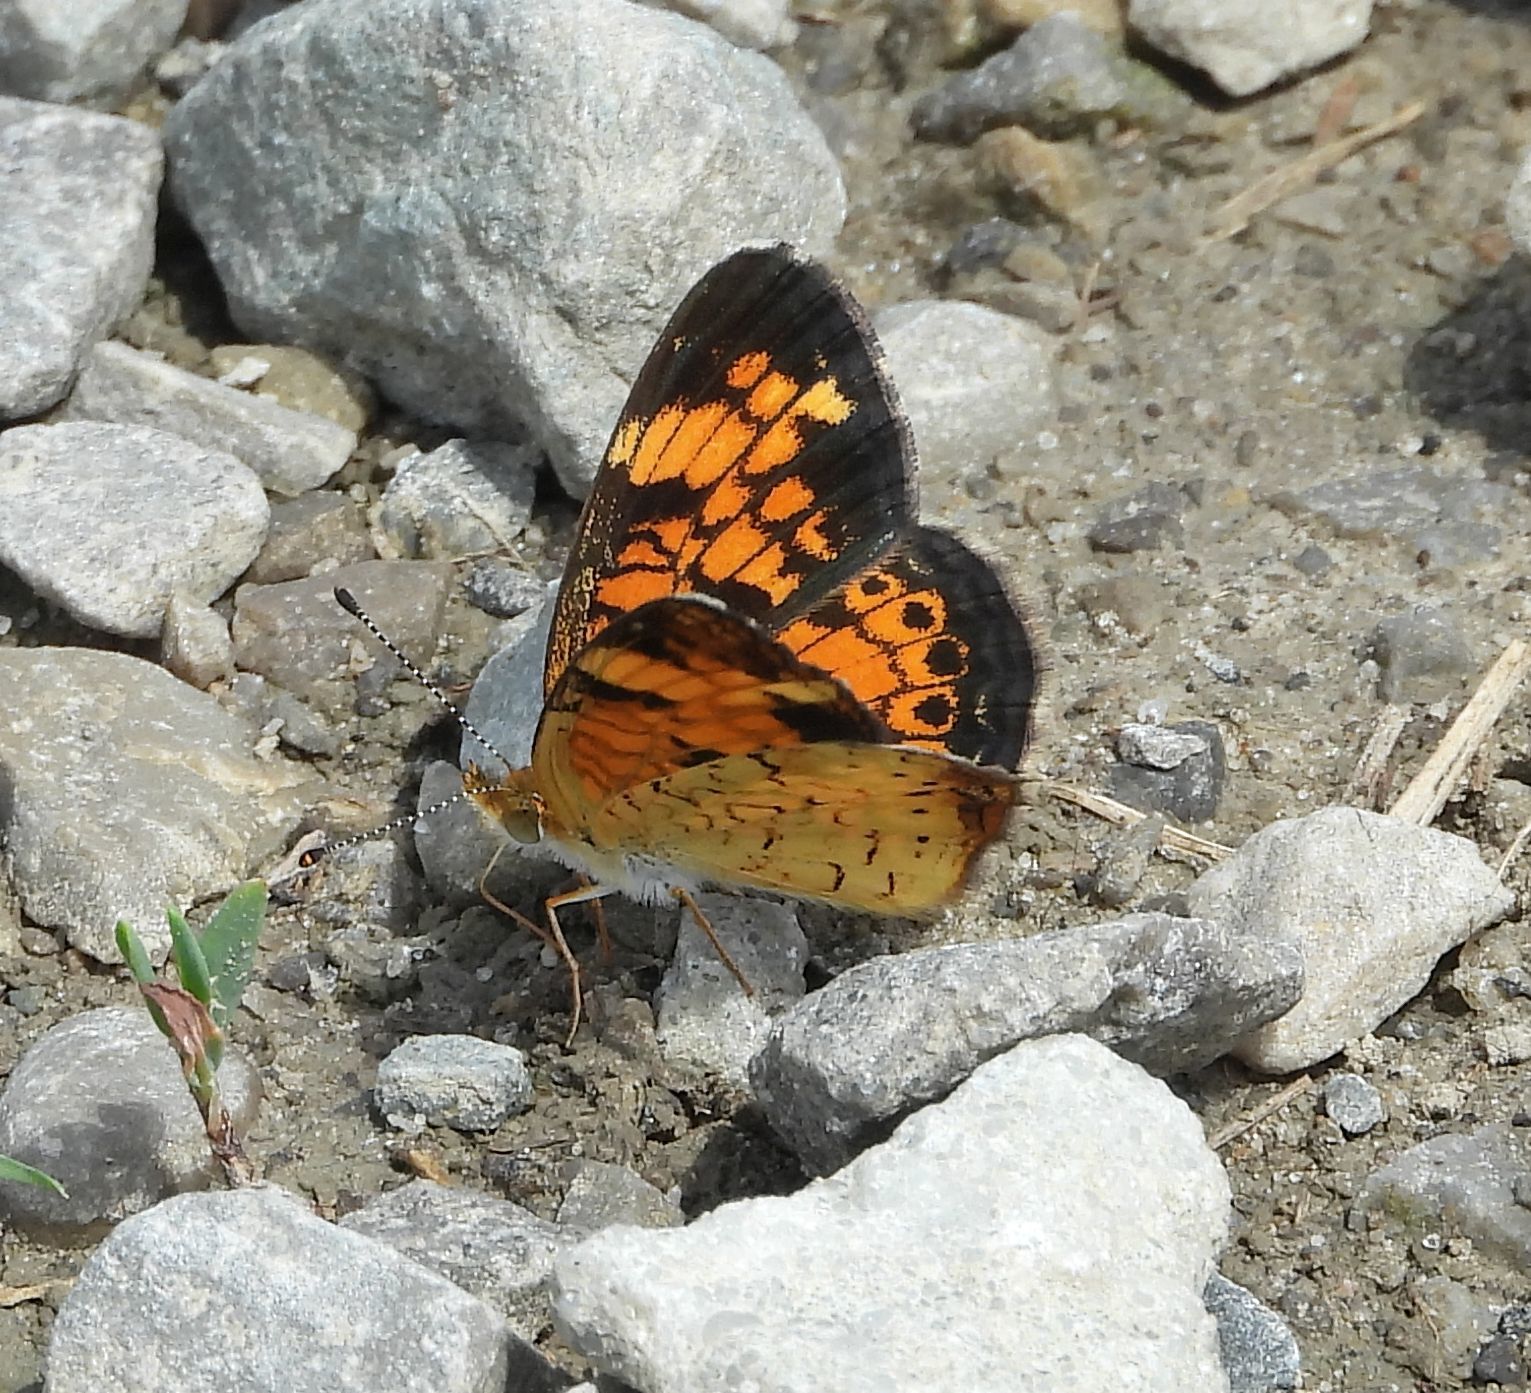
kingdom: Animalia
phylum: Arthropoda
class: Insecta
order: Lepidoptera
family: Nymphalidae
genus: Phyciodes
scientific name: Phyciodes tharos
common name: Pearl crescent
